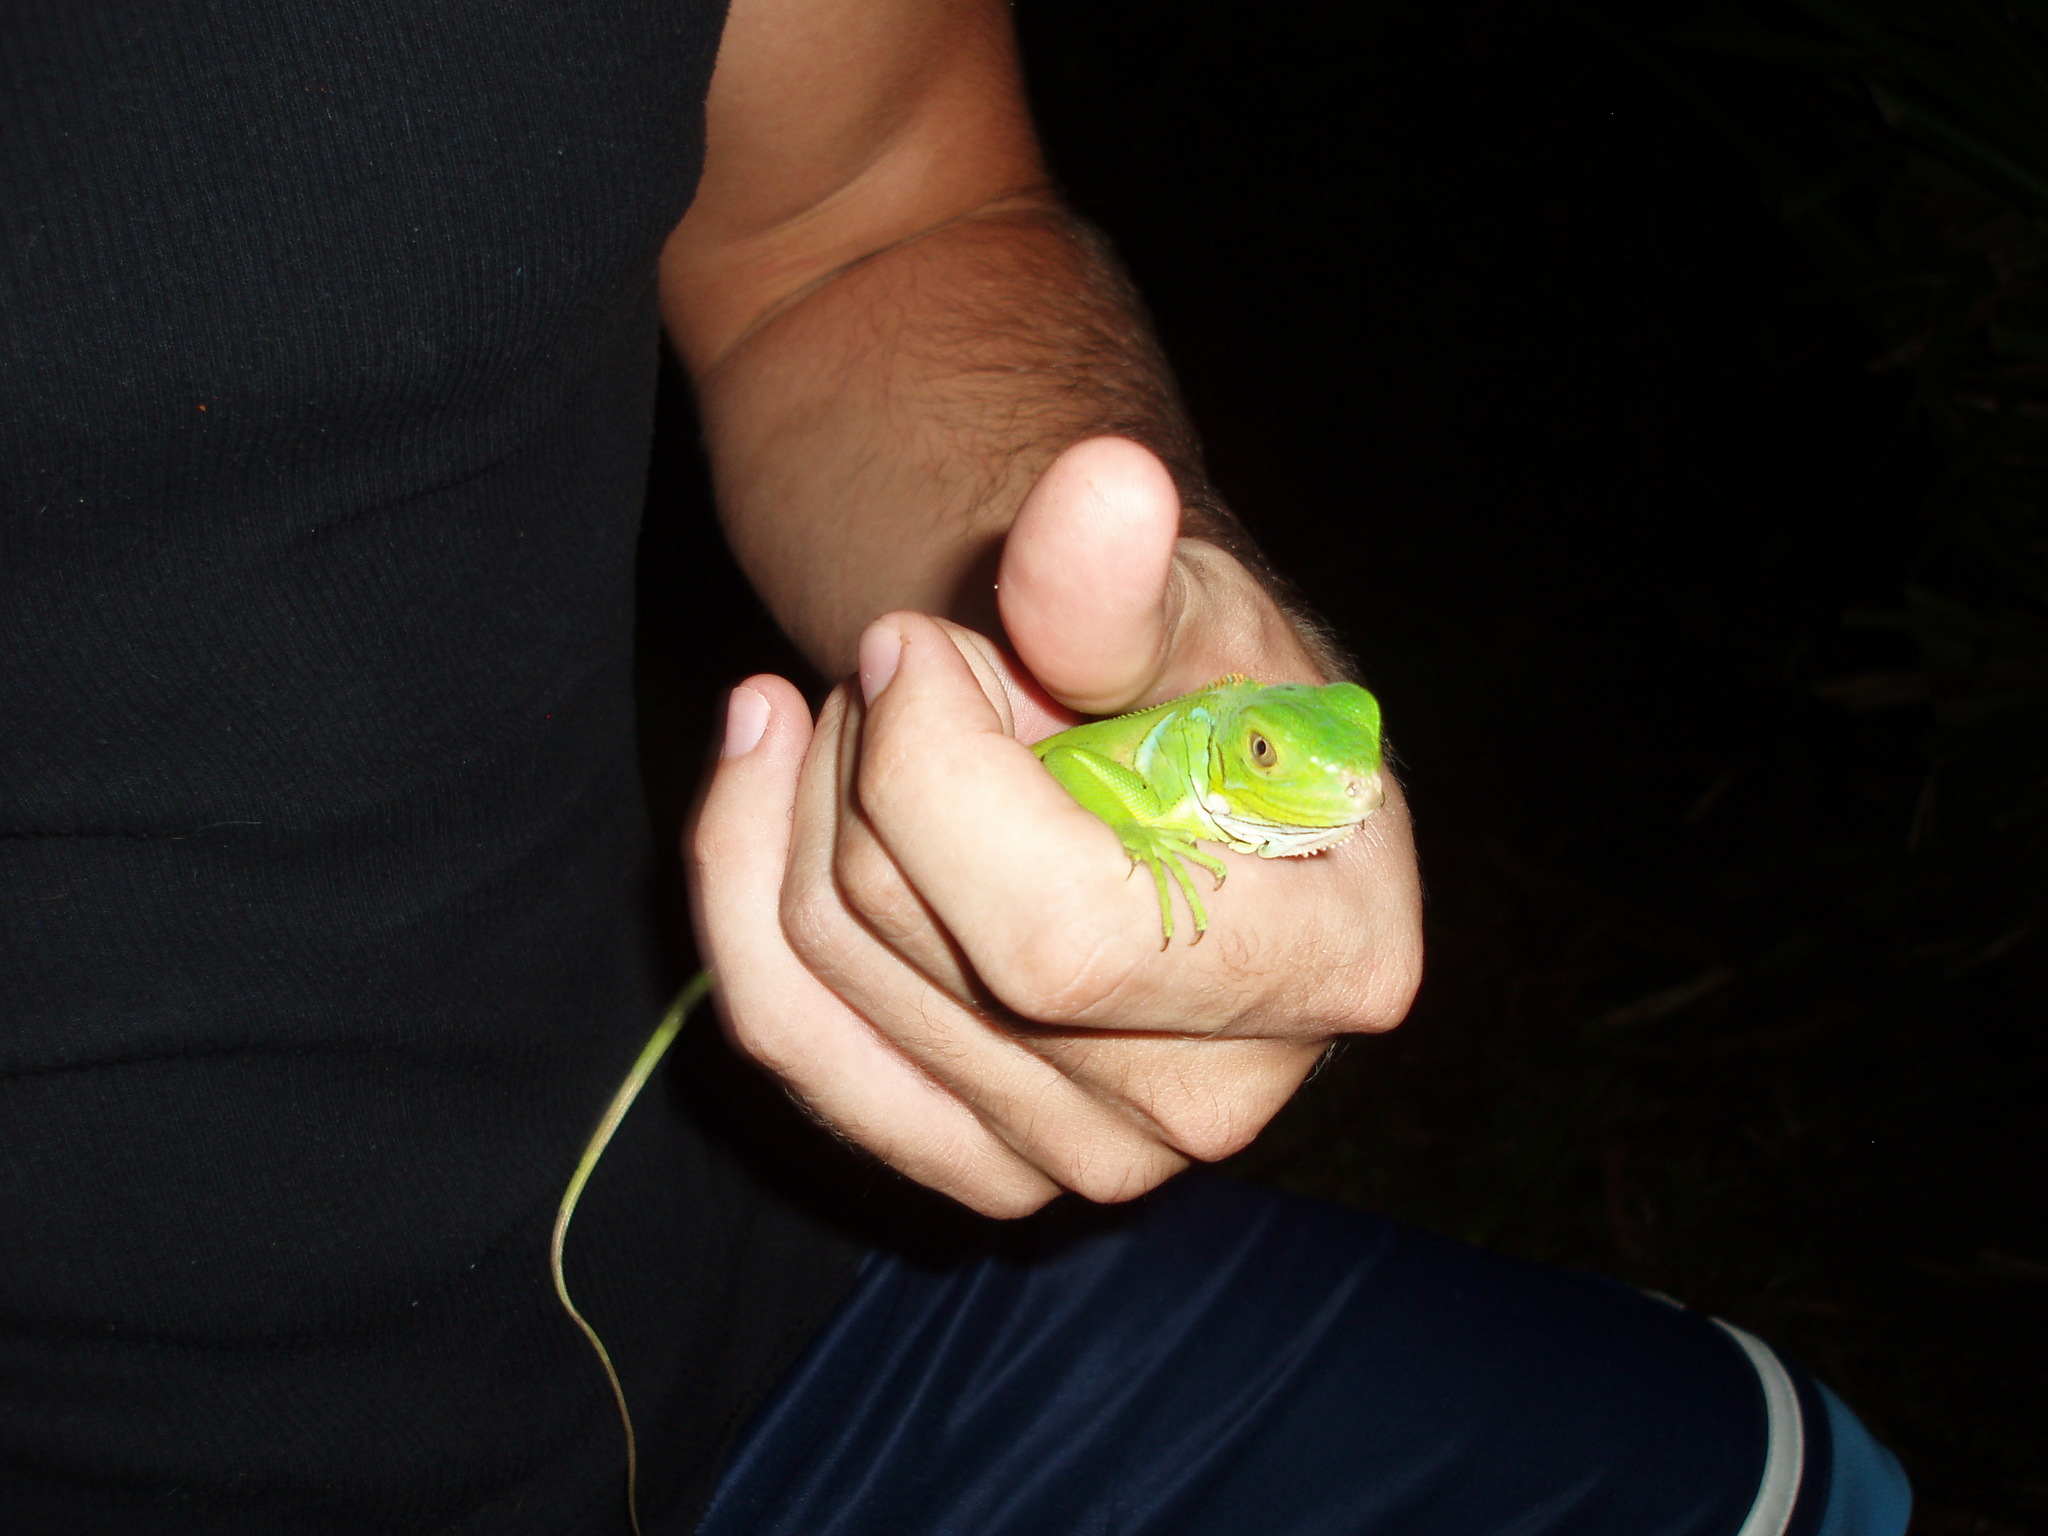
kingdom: Animalia
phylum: Chordata
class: Squamata
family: Iguanidae
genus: Iguana
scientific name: Iguana iguana
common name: Green iguana
